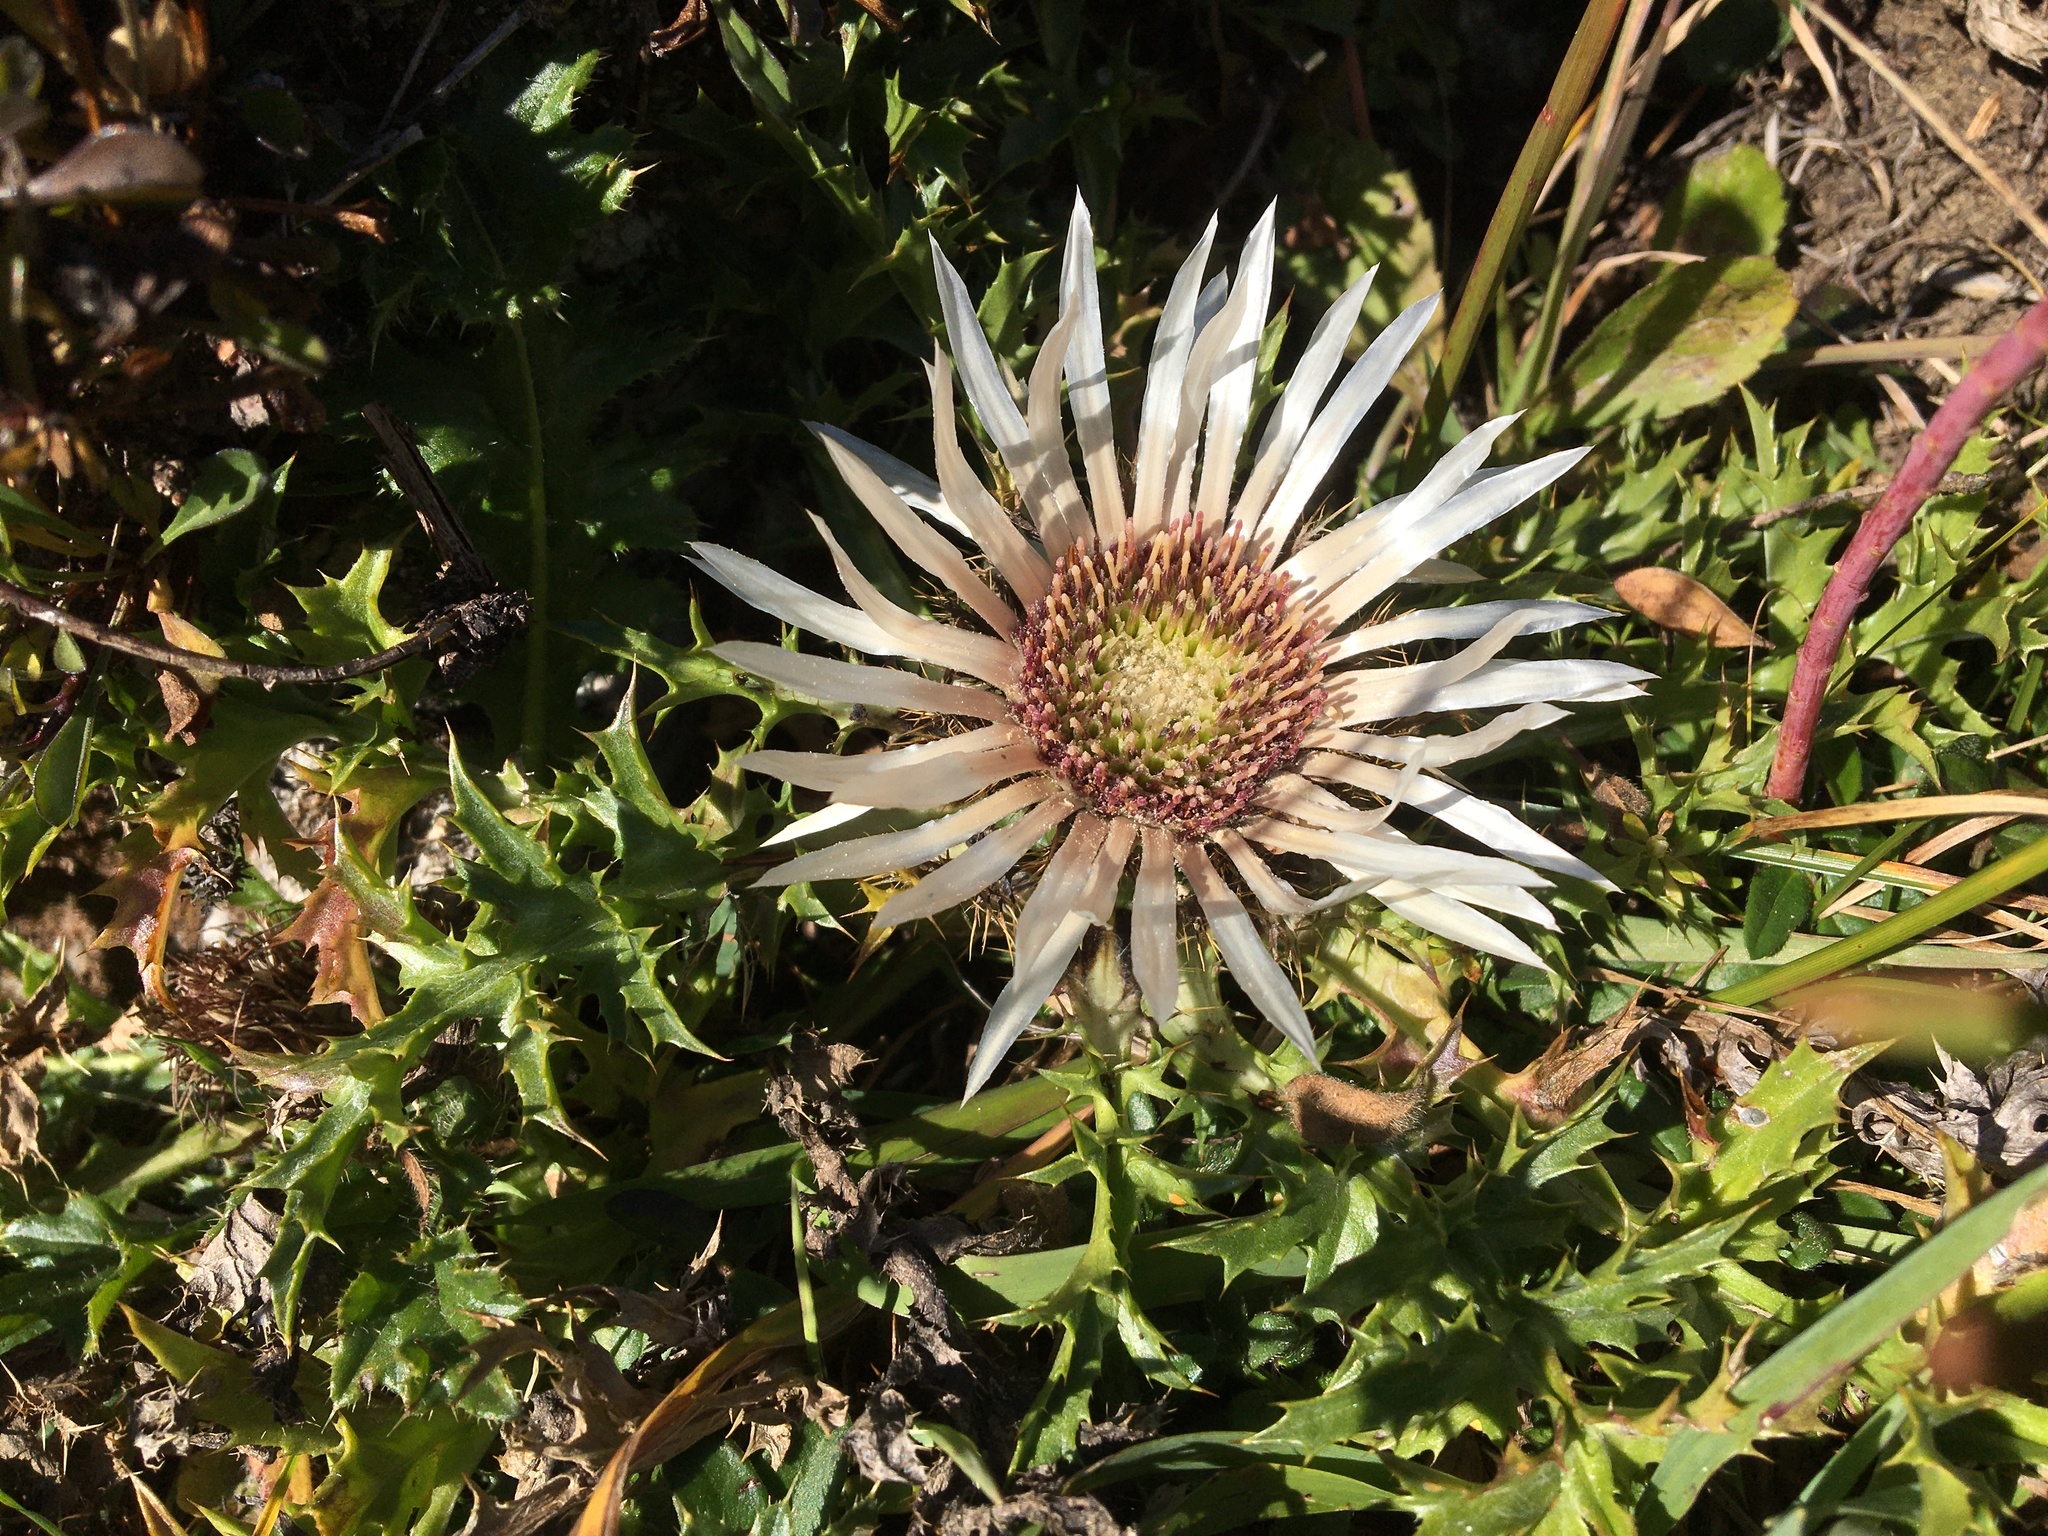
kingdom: Plantae
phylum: Tracheophyta
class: Magnoliopsida
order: Asterales
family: Asteraceae
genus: Carlina
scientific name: Carlina acaulis
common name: Stemless carline thistle
